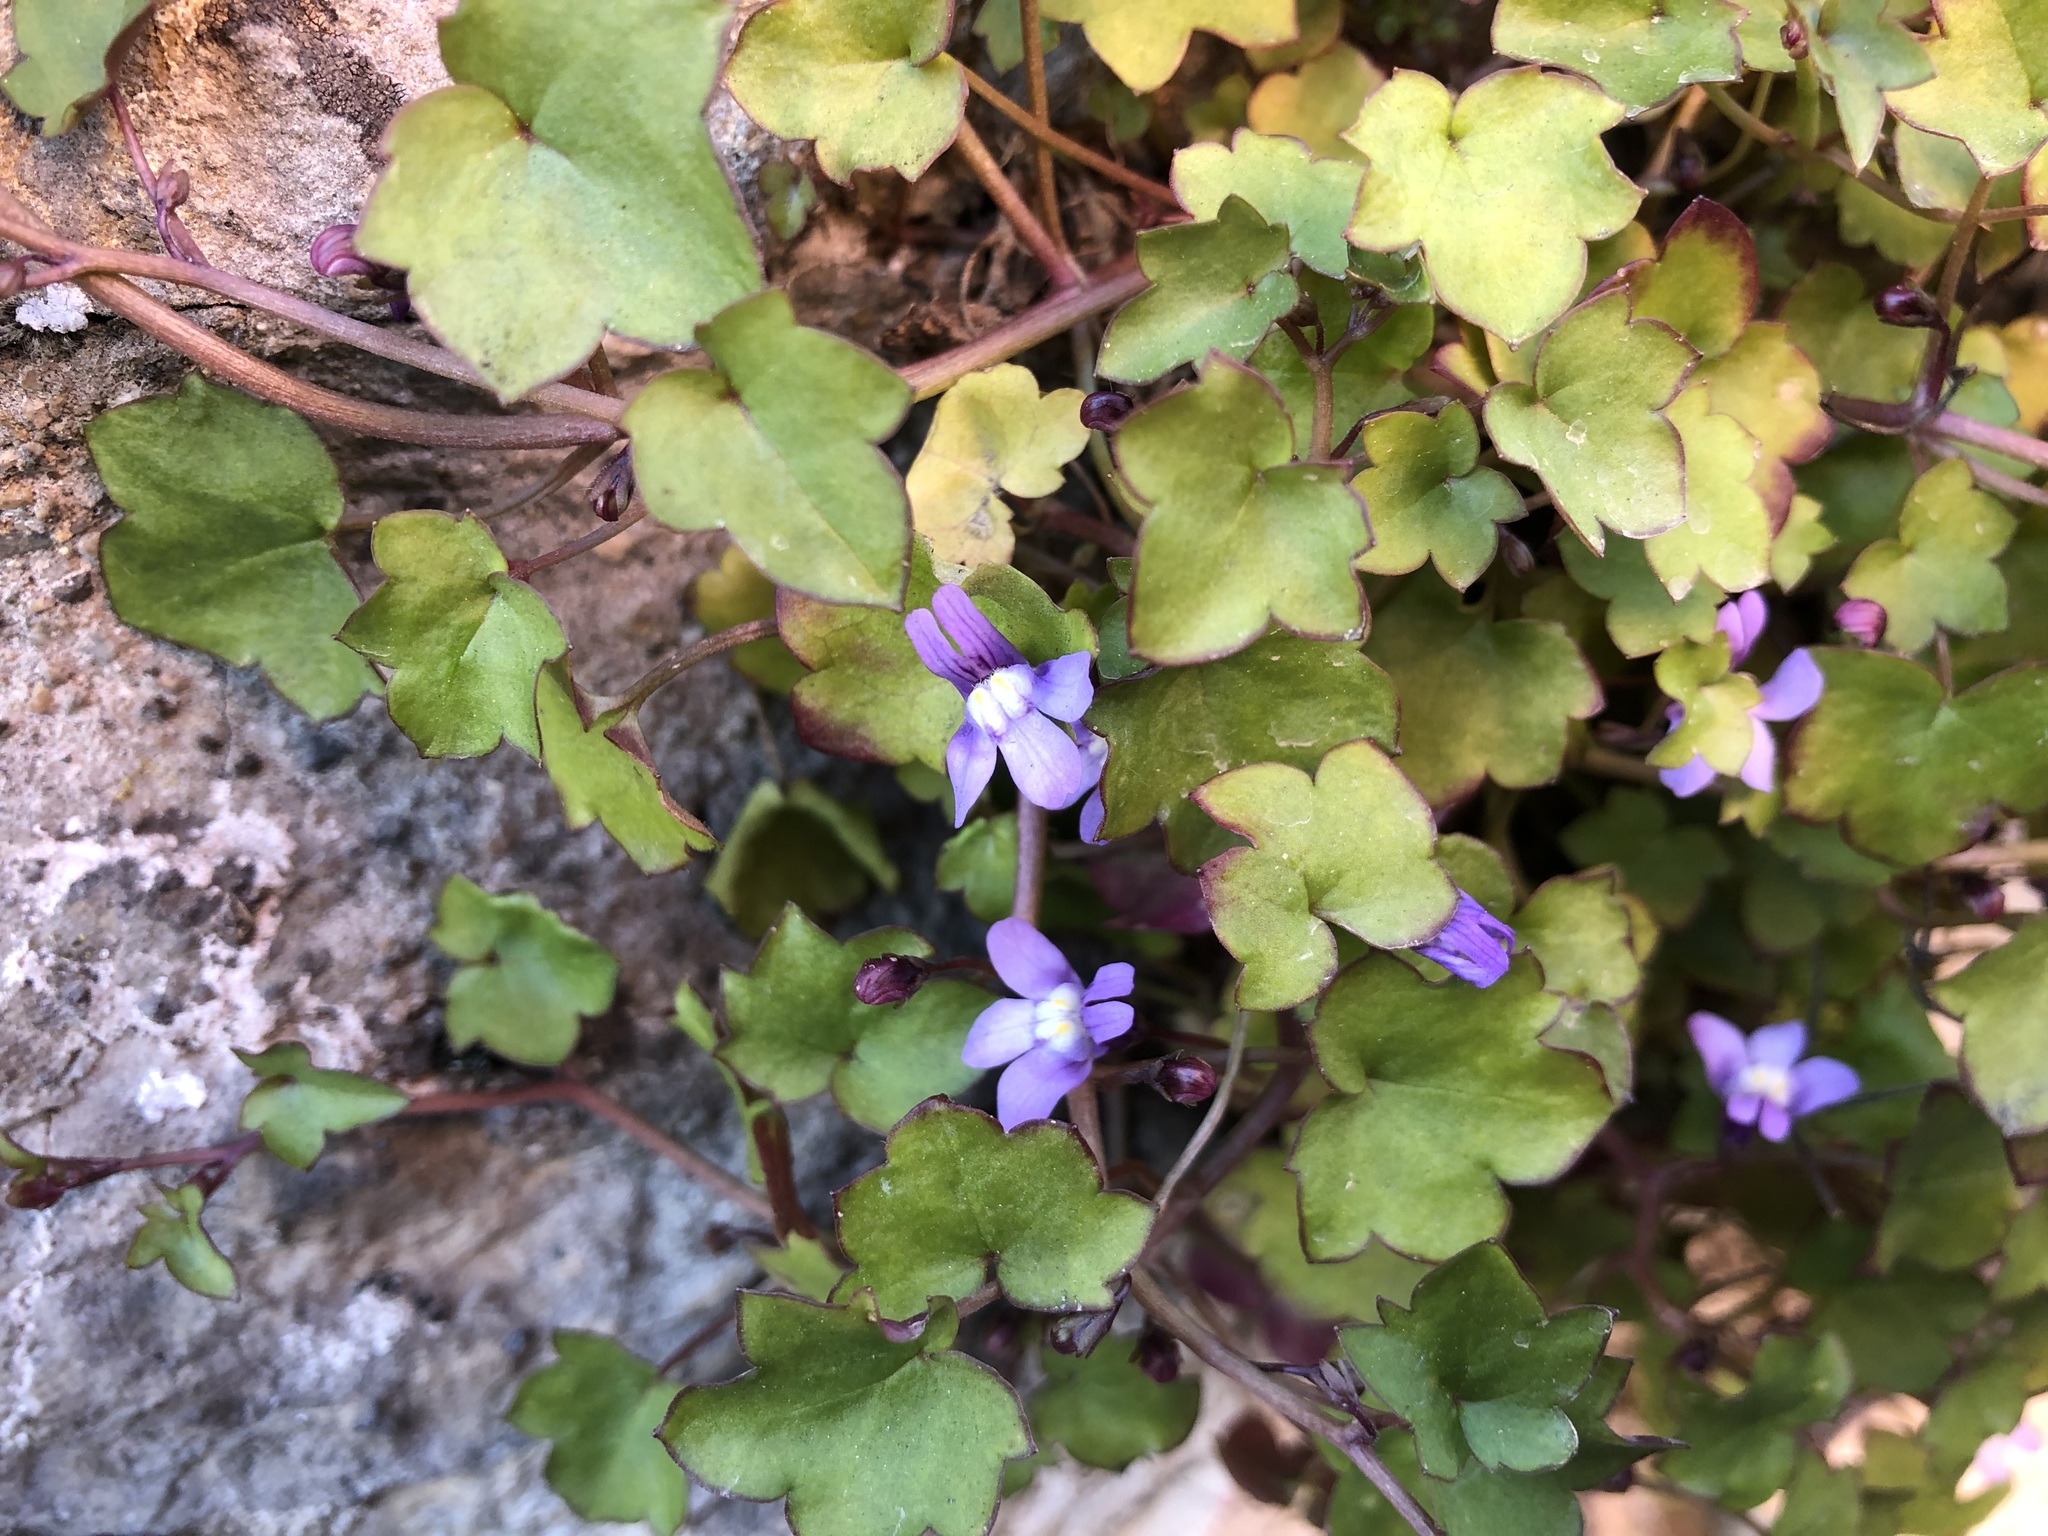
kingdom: Plantae
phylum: Tracheophyta
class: Magnoliopsida
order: Lamiales
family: Plantaginaceae
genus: Cymbalaria
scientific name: Cymbalaria muralis
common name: Ivy-leaved toadflax
